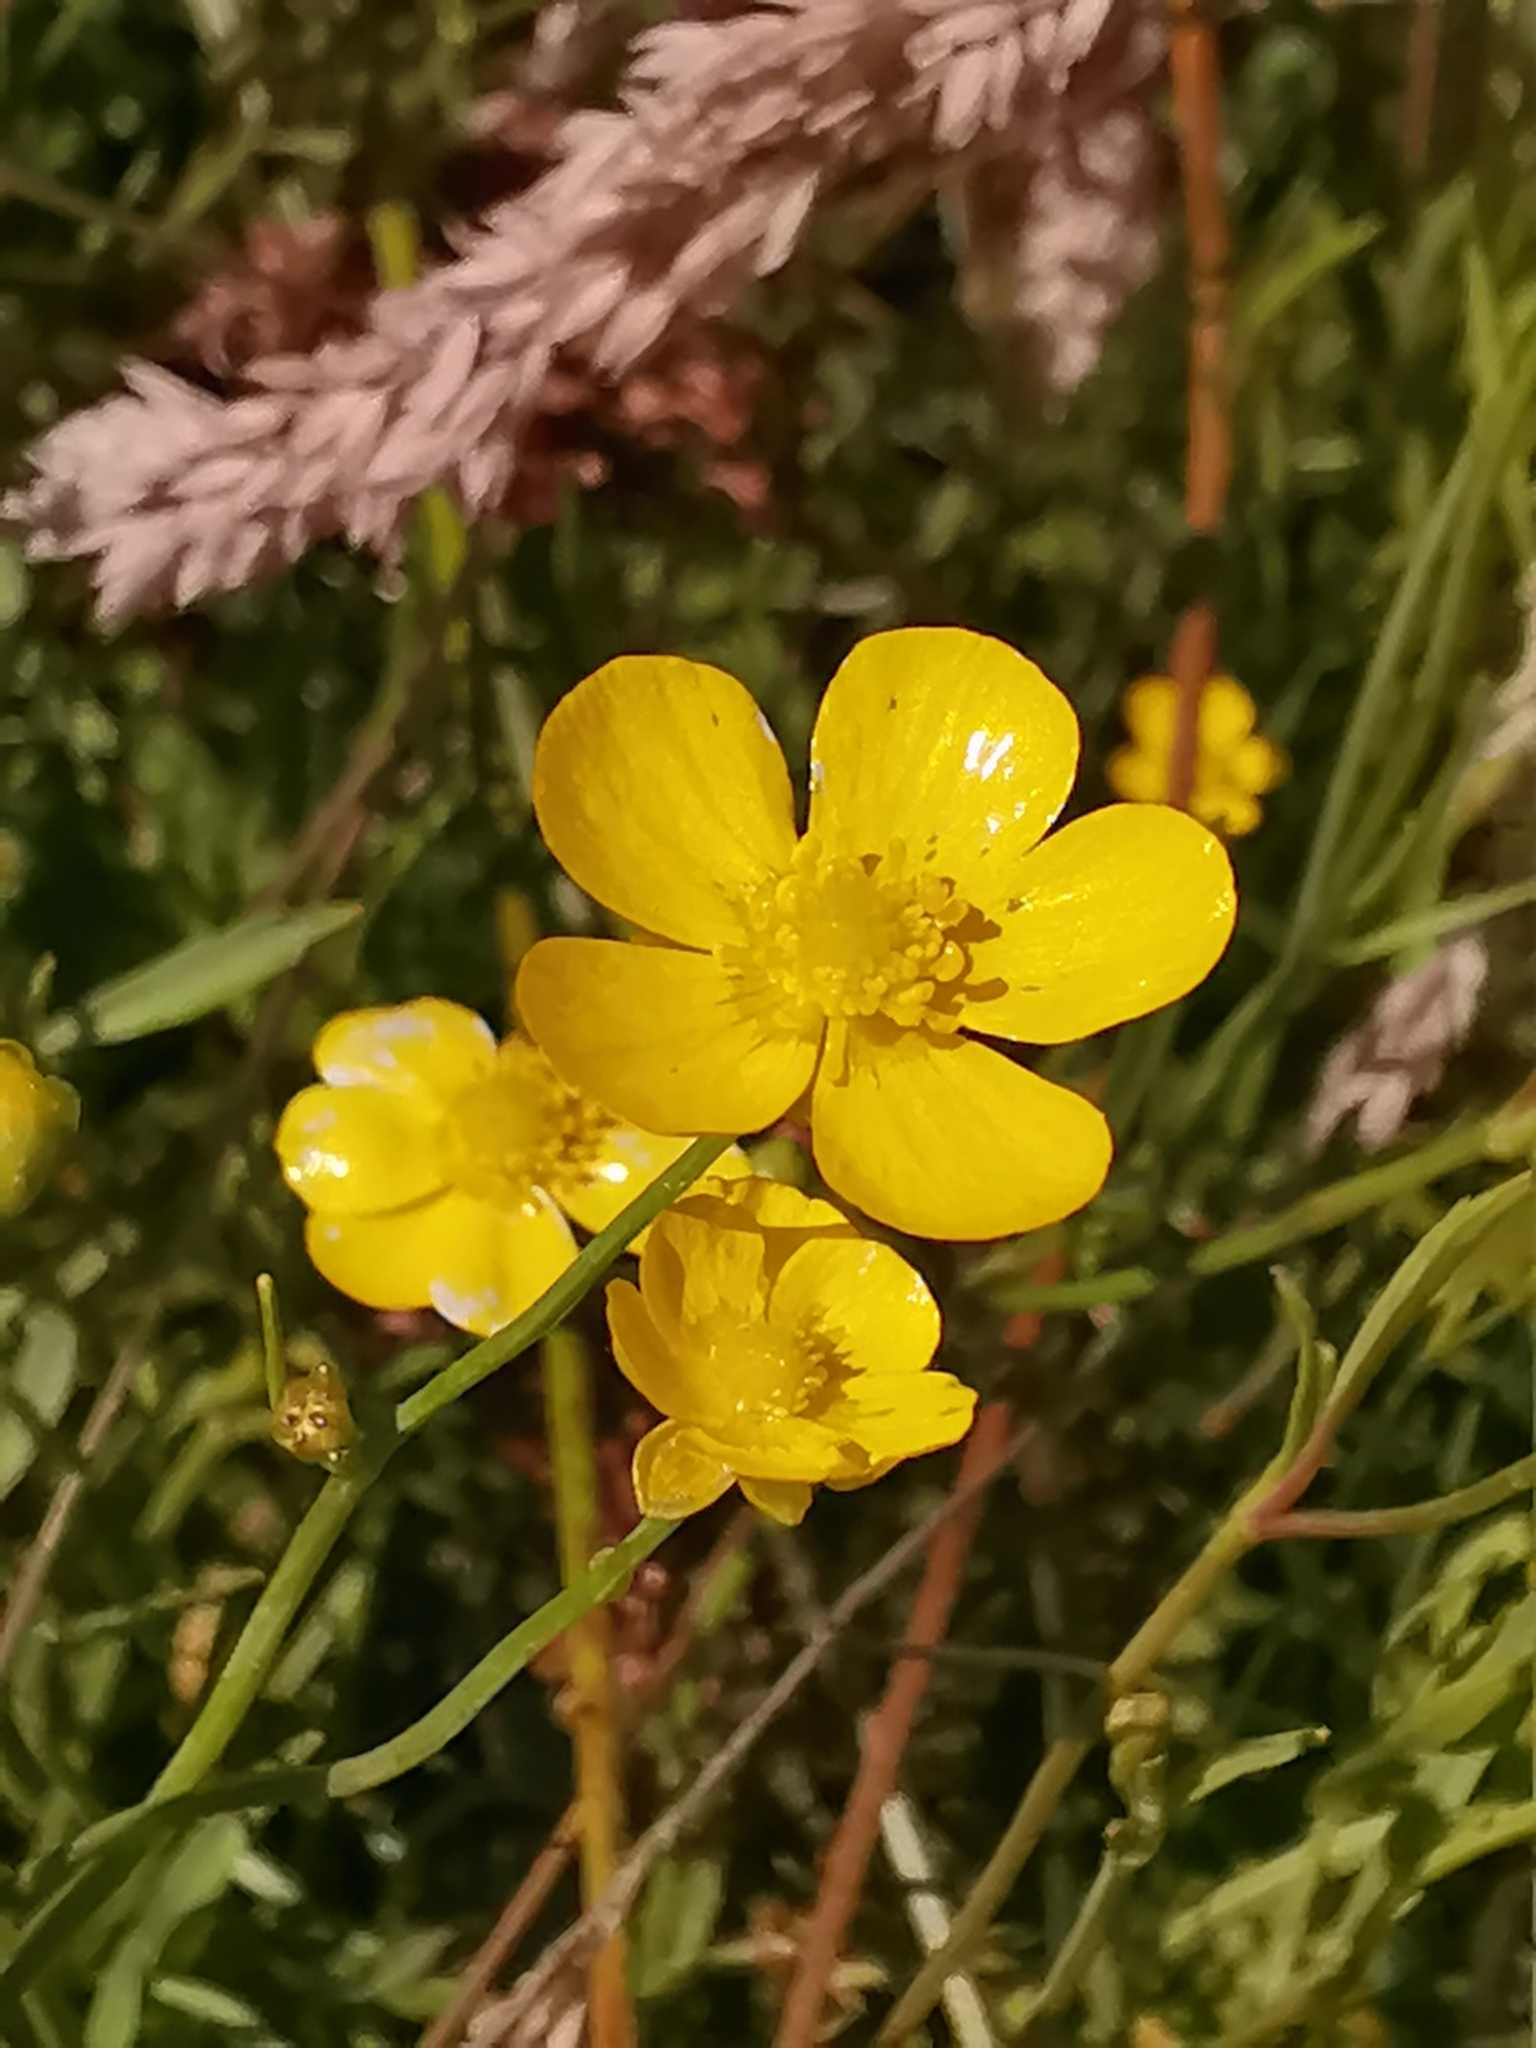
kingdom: Plantae
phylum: Tracheophyta
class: Magnoliopsida
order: Ranunculales
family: Ranunculaceae
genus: Ranunculus
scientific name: Ranunculus flammula
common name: Lesser spearwort
